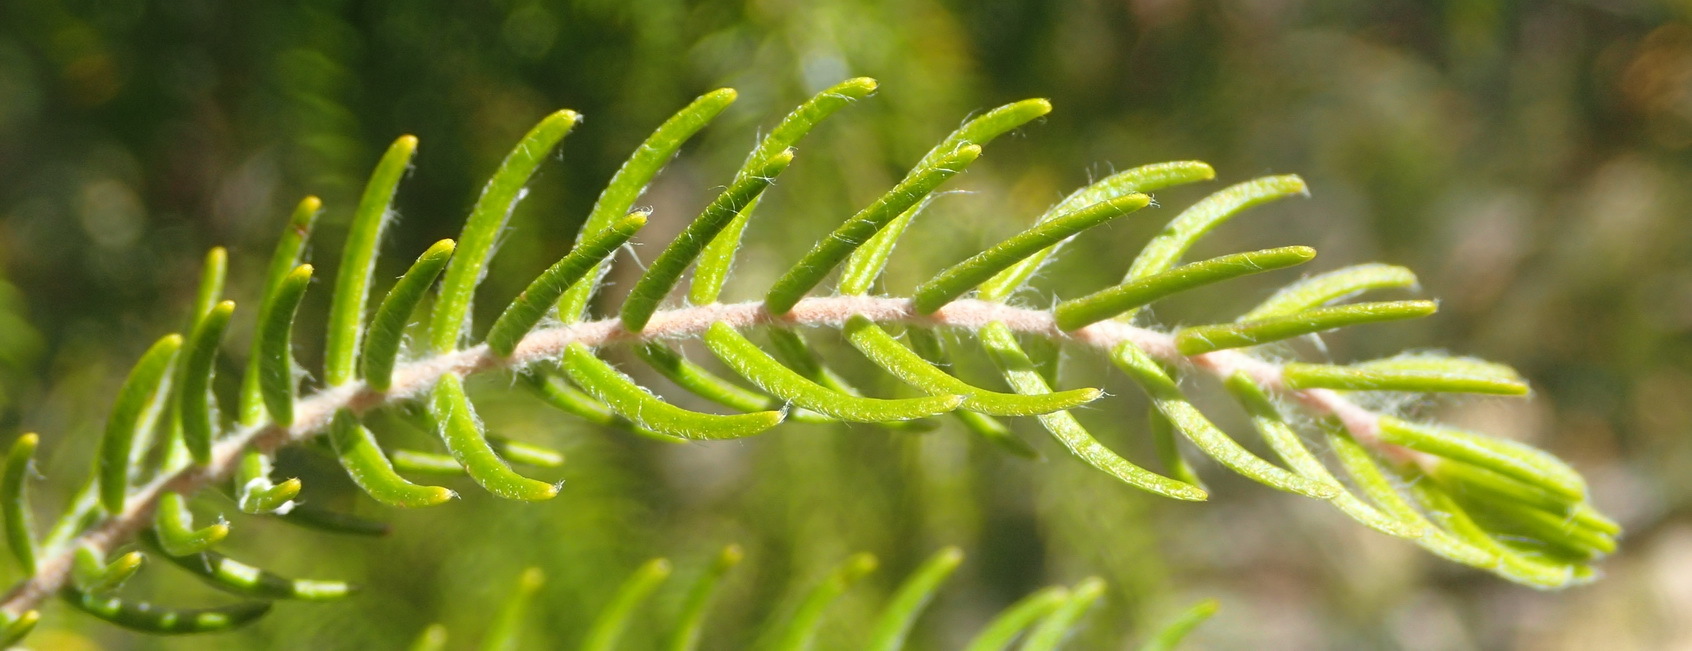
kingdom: Plantae
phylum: Tracheophyta
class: Magnoliopsida
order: Malvales
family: Thymelaeaceae
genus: Passerina
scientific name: Passerina falcifolia
